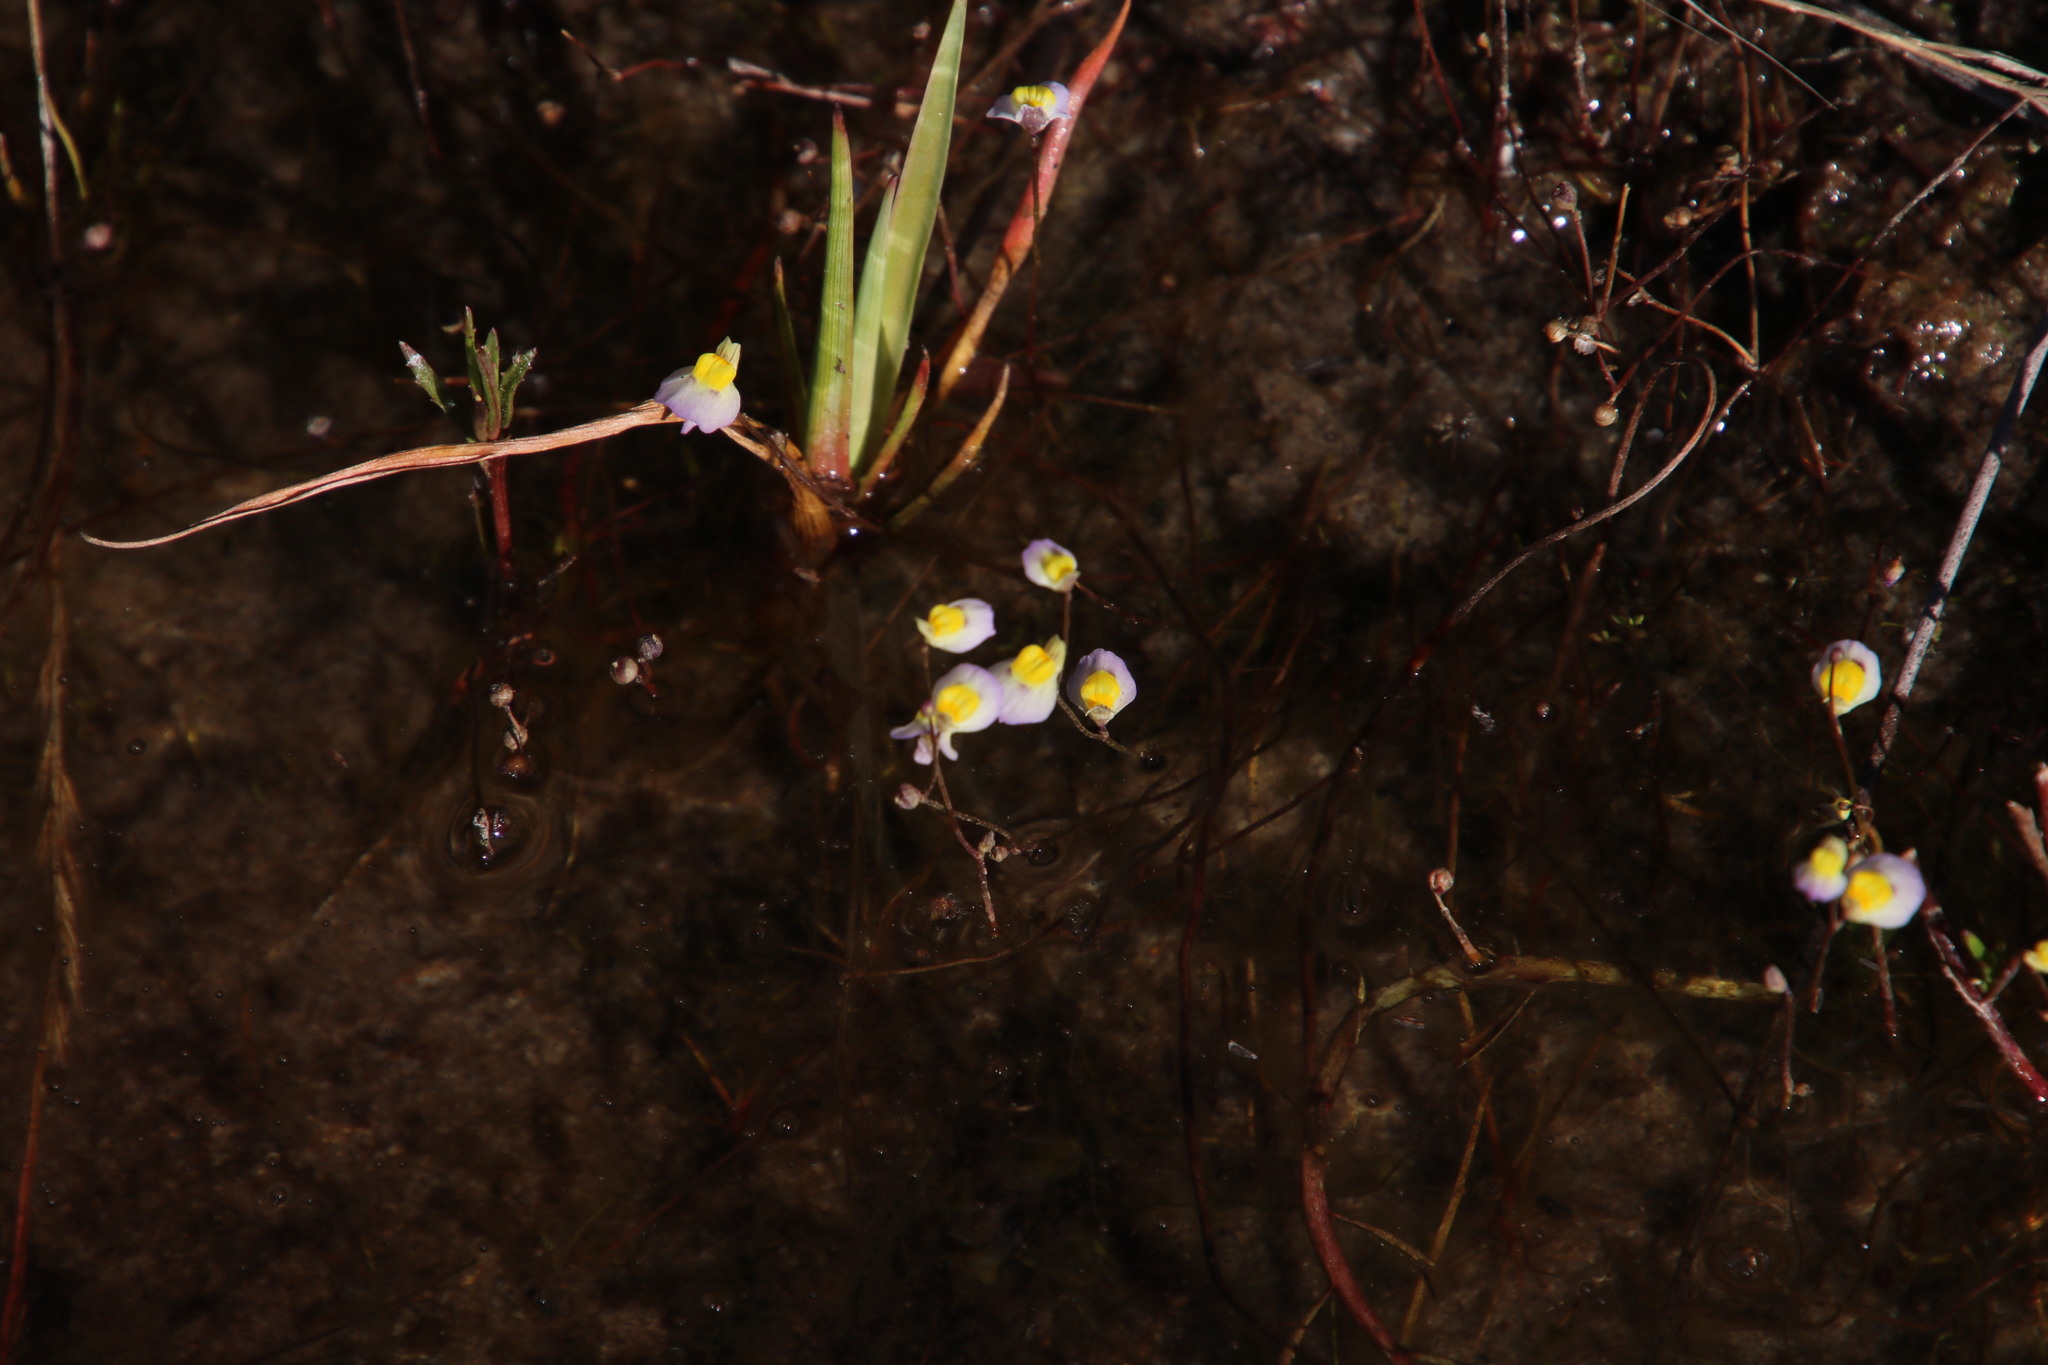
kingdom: Plantae
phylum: Tracheophyta
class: Magnoliopsida
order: Lamiales
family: Lentibulariaceae
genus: Utricularia
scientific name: Utricularia bisquamata
